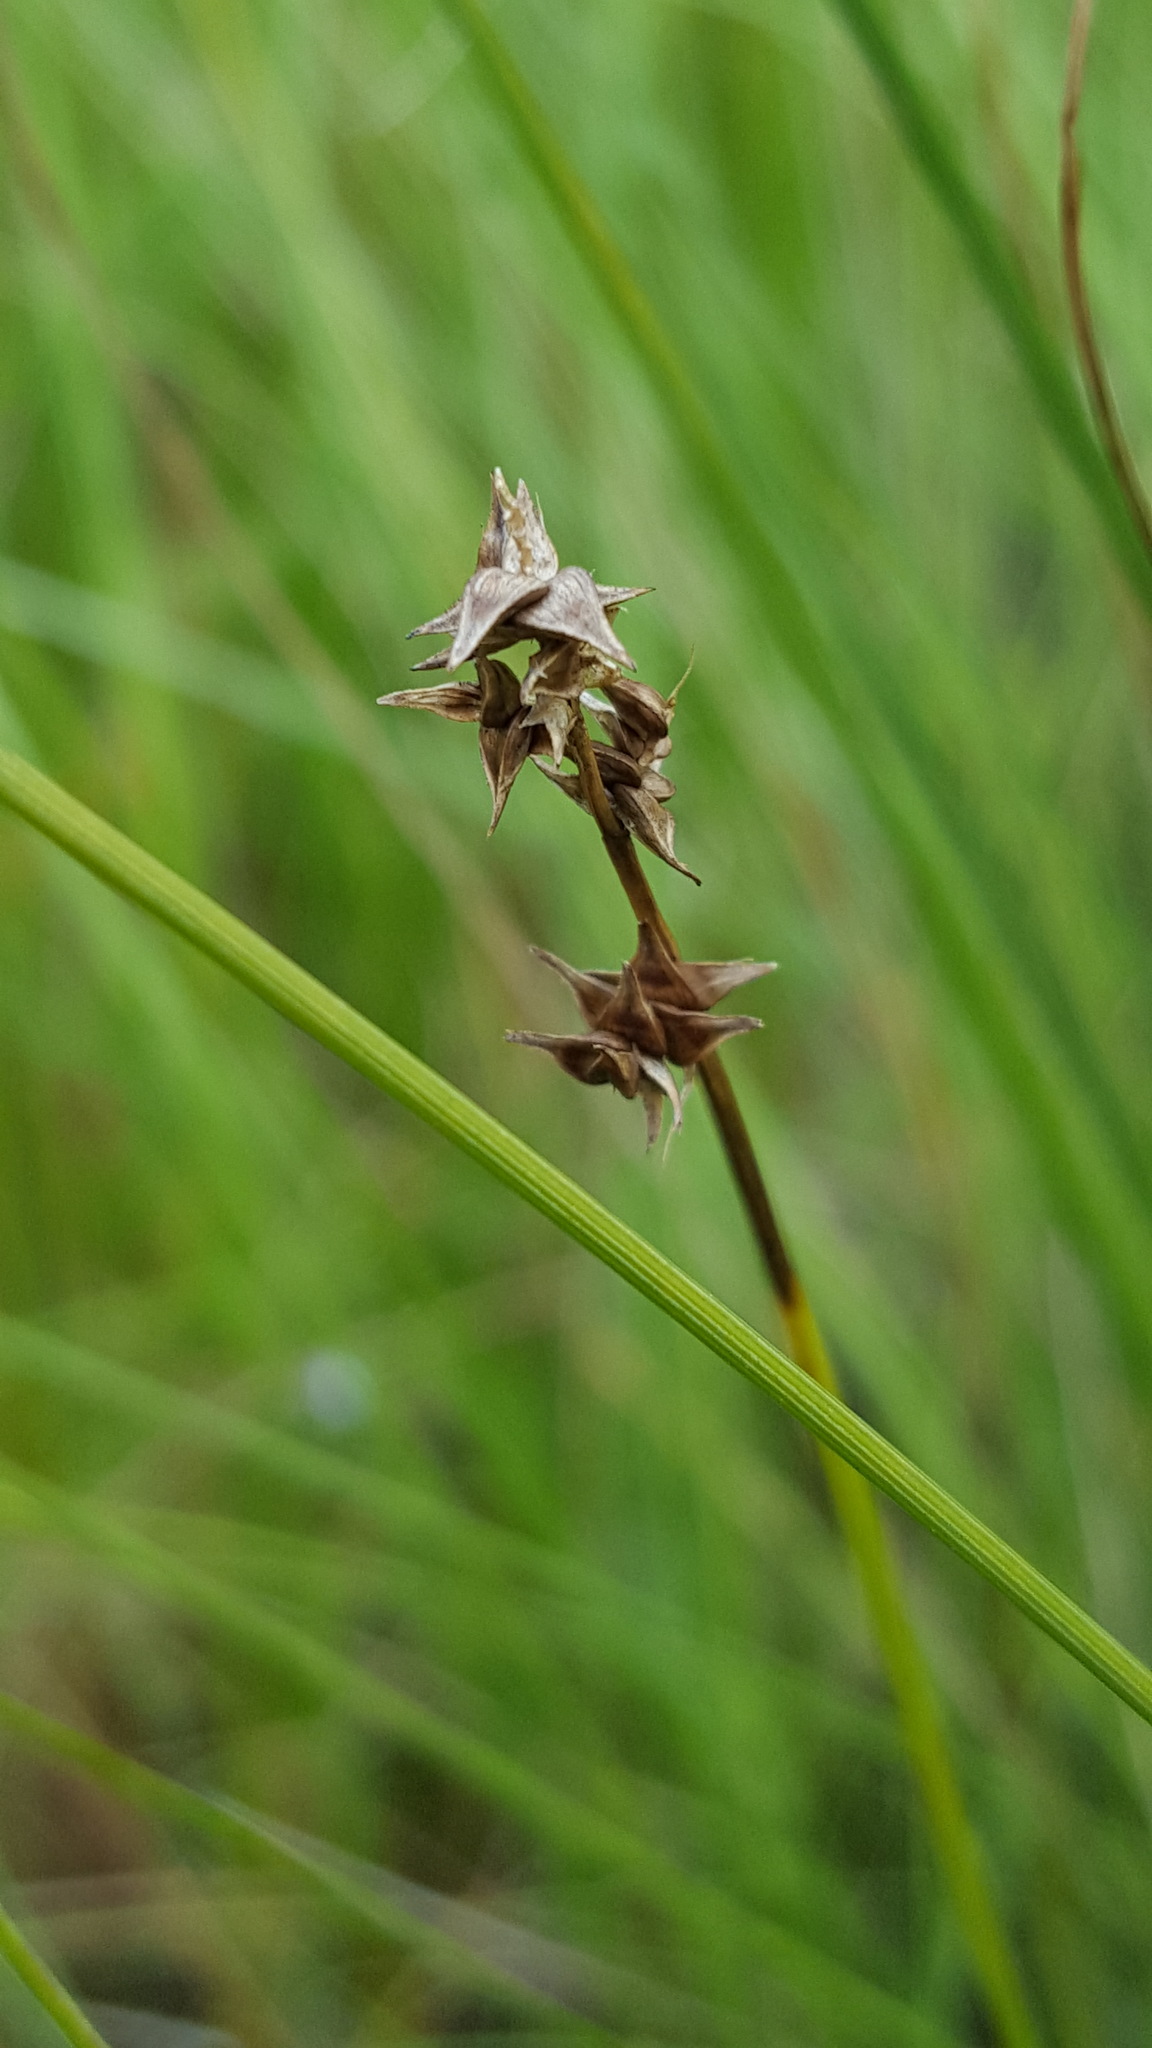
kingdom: Plantae
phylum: Tracheophyta
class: Liliopsida
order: Poales
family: Cyperaceae
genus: Carex
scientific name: Carex sterilis
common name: Dioecious sedge
